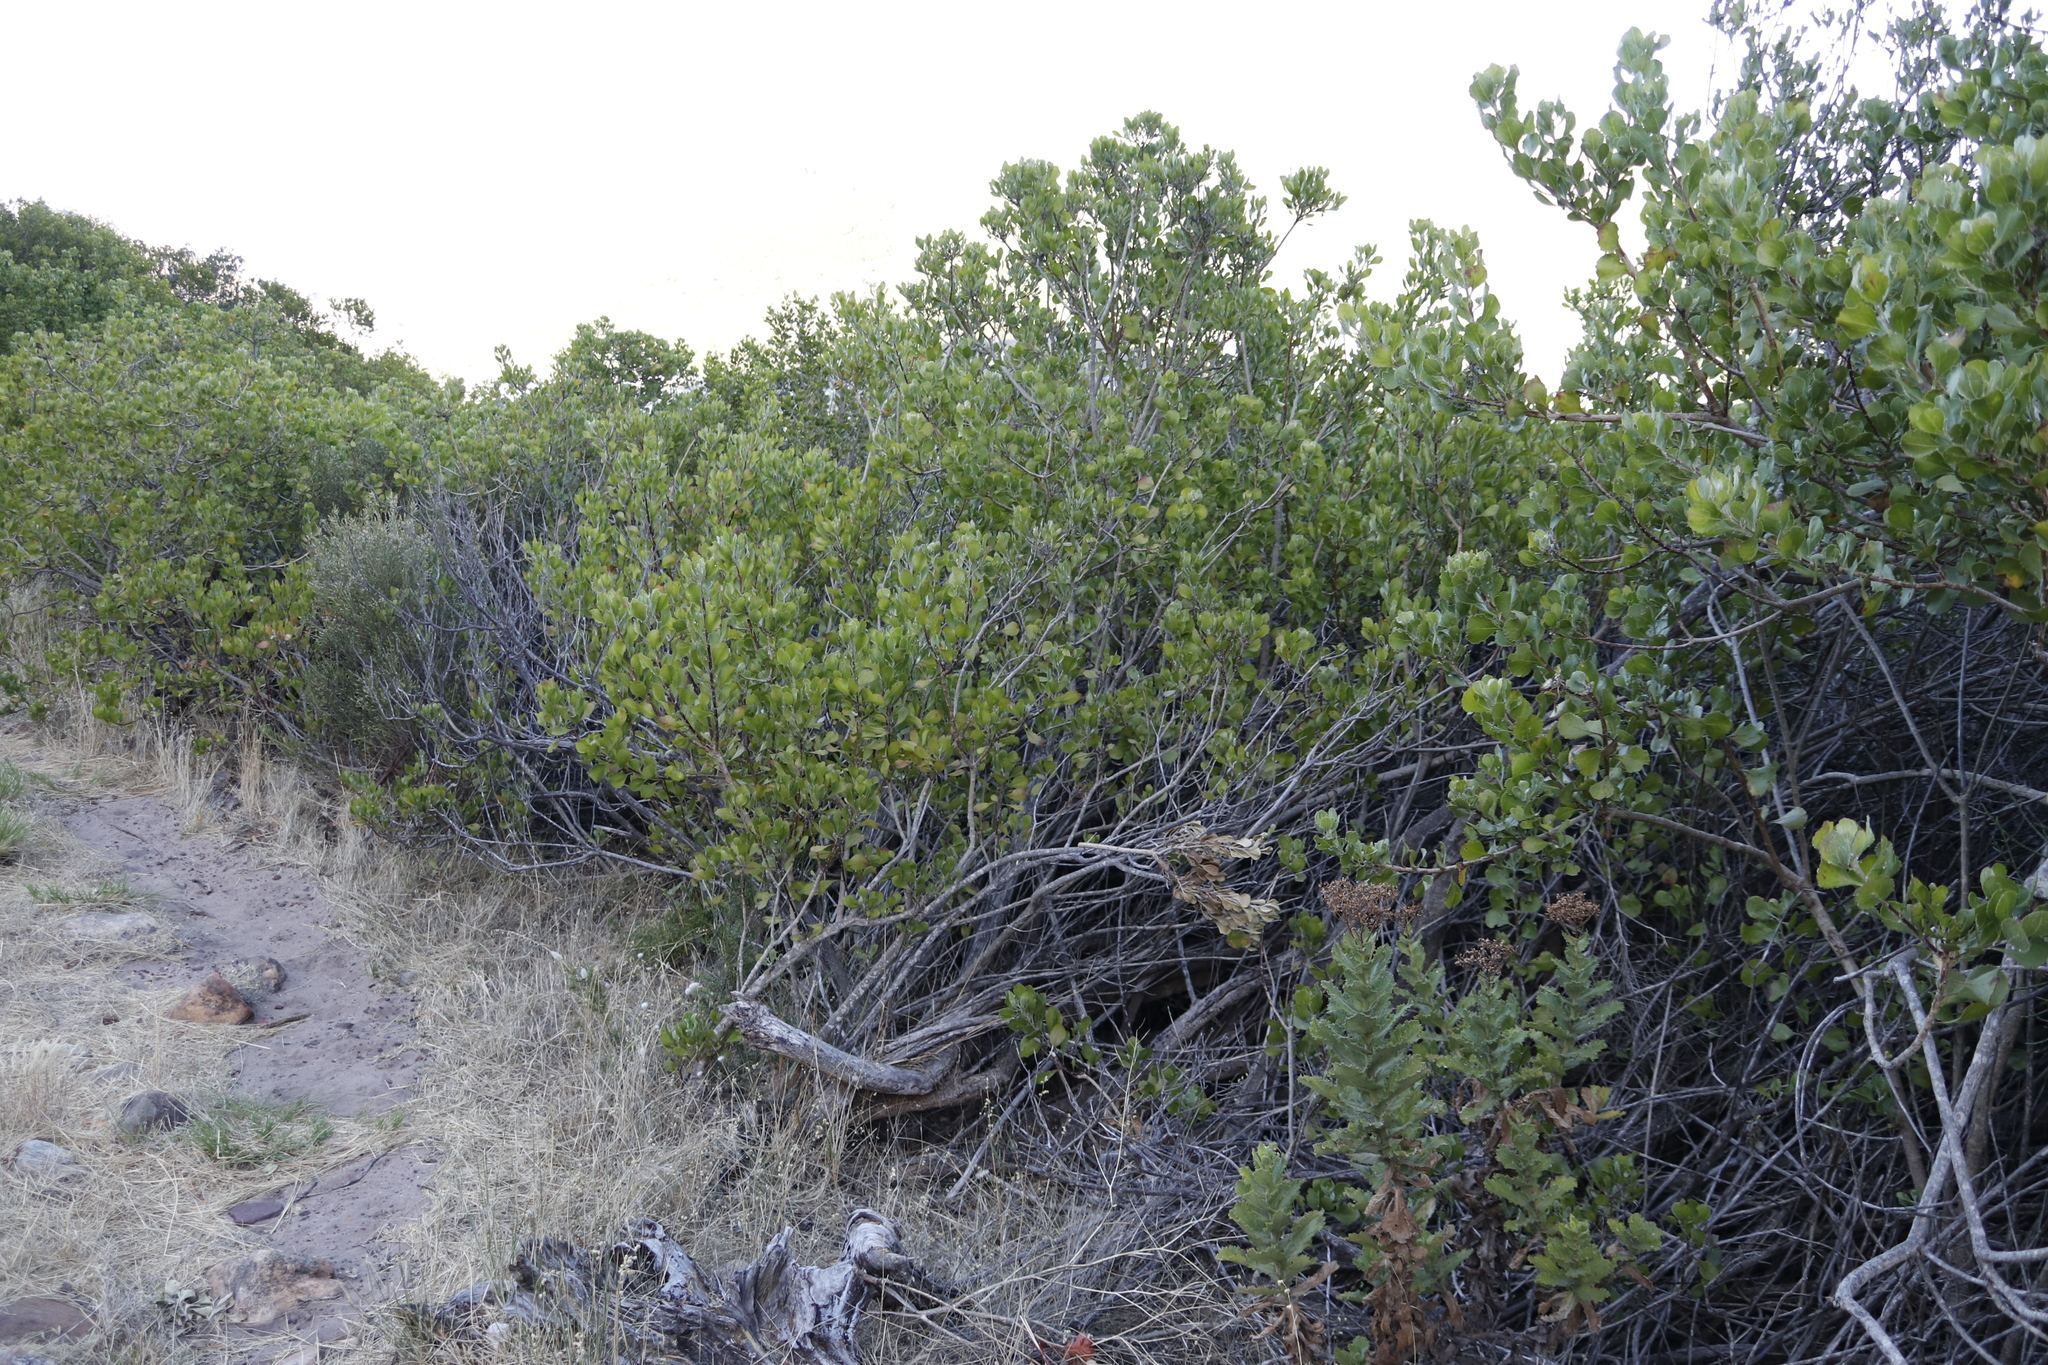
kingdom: Plantae
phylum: Tracheophyta
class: Magnoliopsida
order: Asterales
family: Asteraceae
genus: Osteospermum
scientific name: Osteospermum moniliferum
